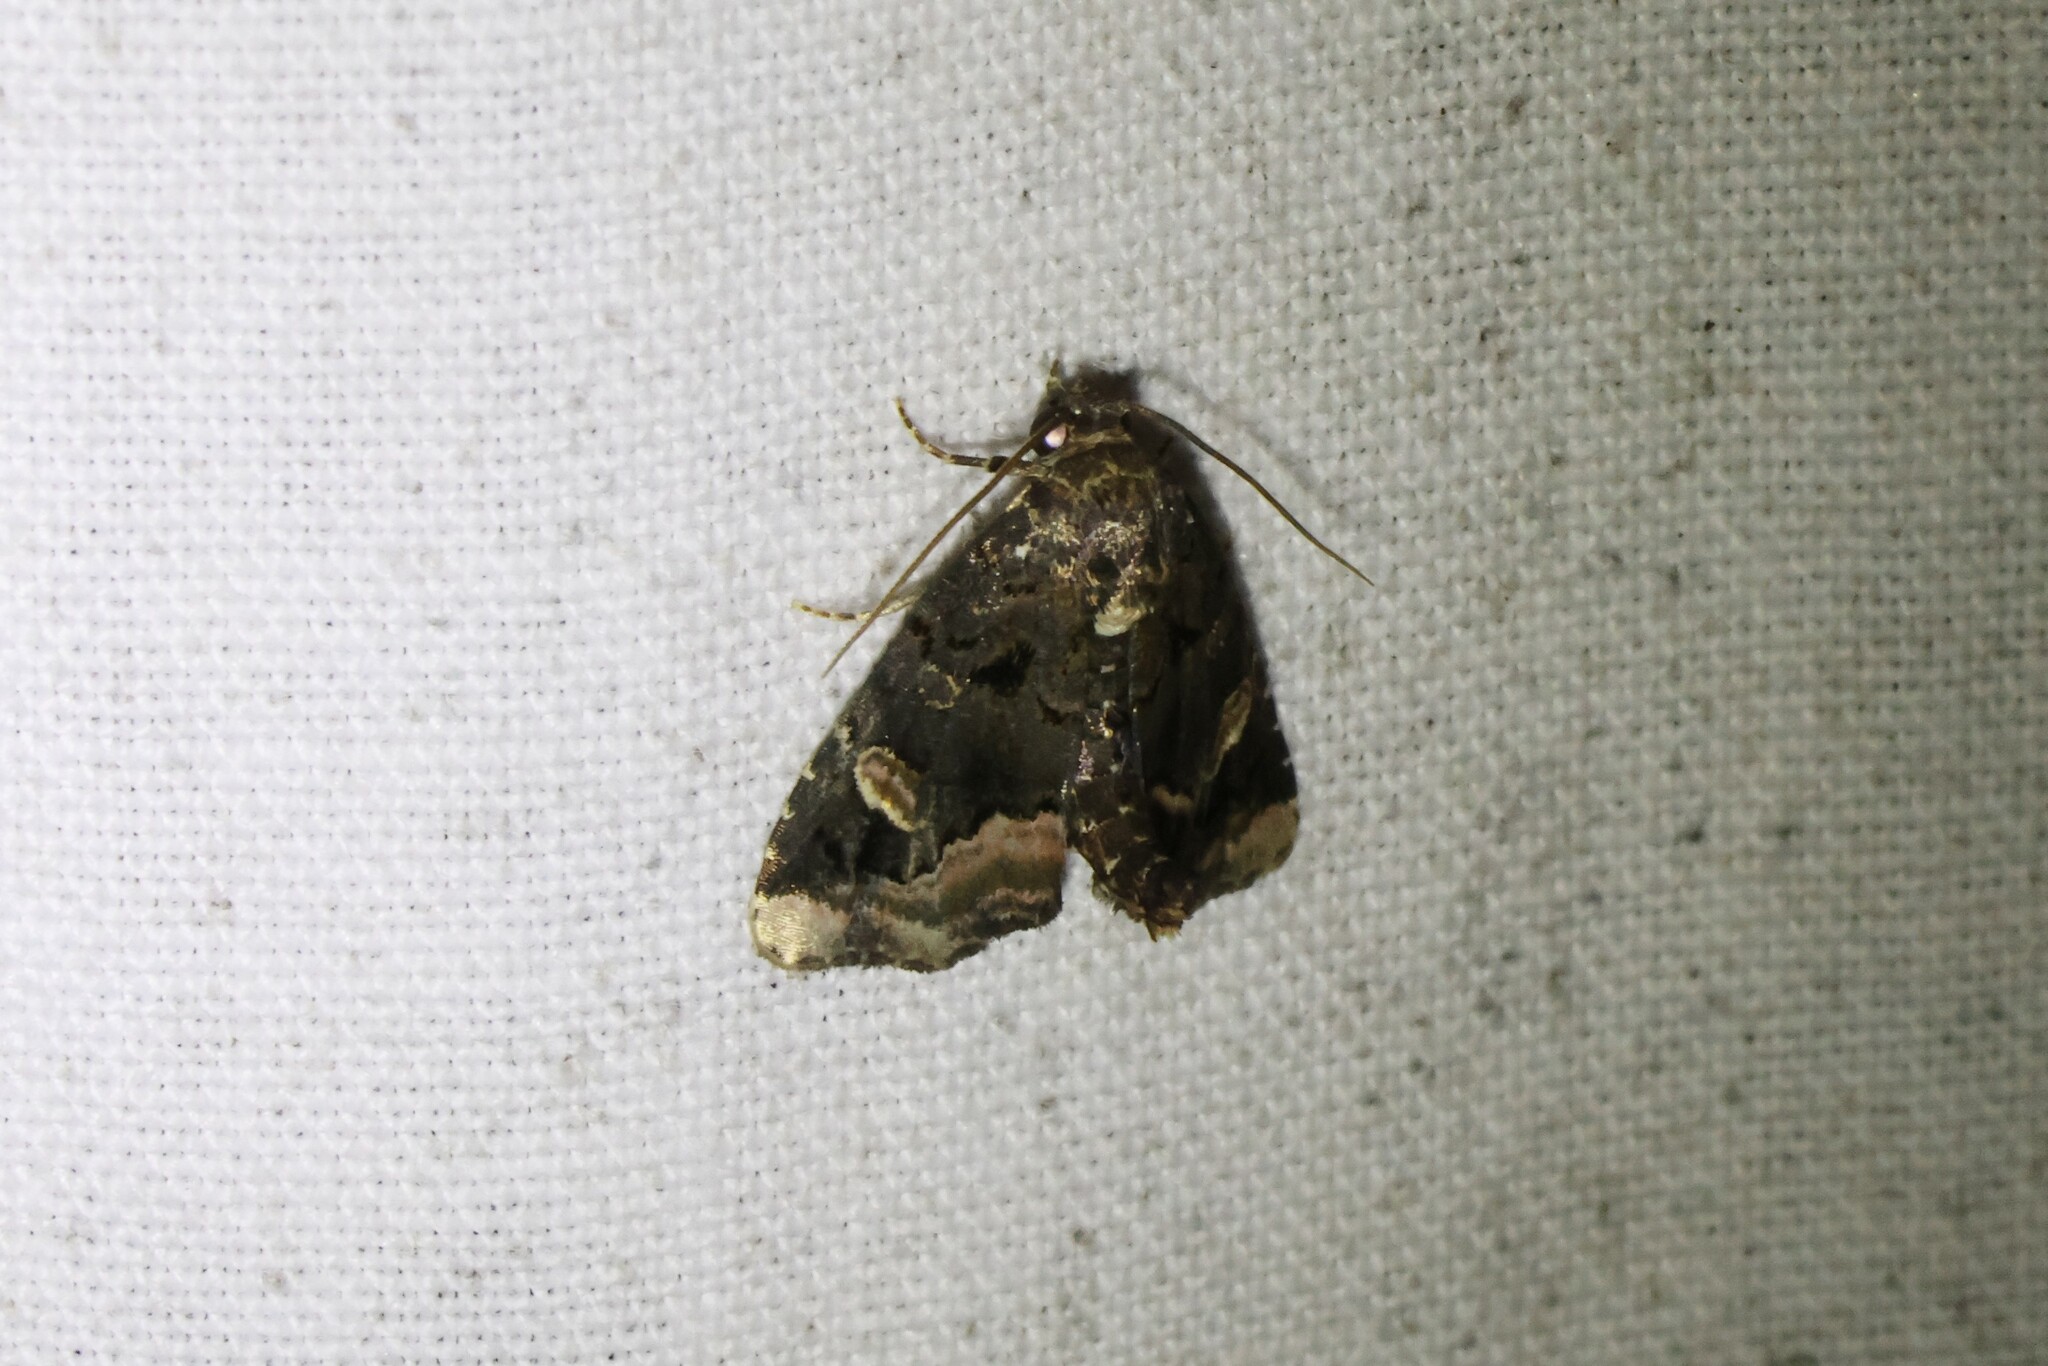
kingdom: Animalia
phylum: Arthropoda
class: Insecta
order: Lepidoptera
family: Noctuidae
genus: Homophoberia
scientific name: Homophoberia apicosa
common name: Black wedge-spot
